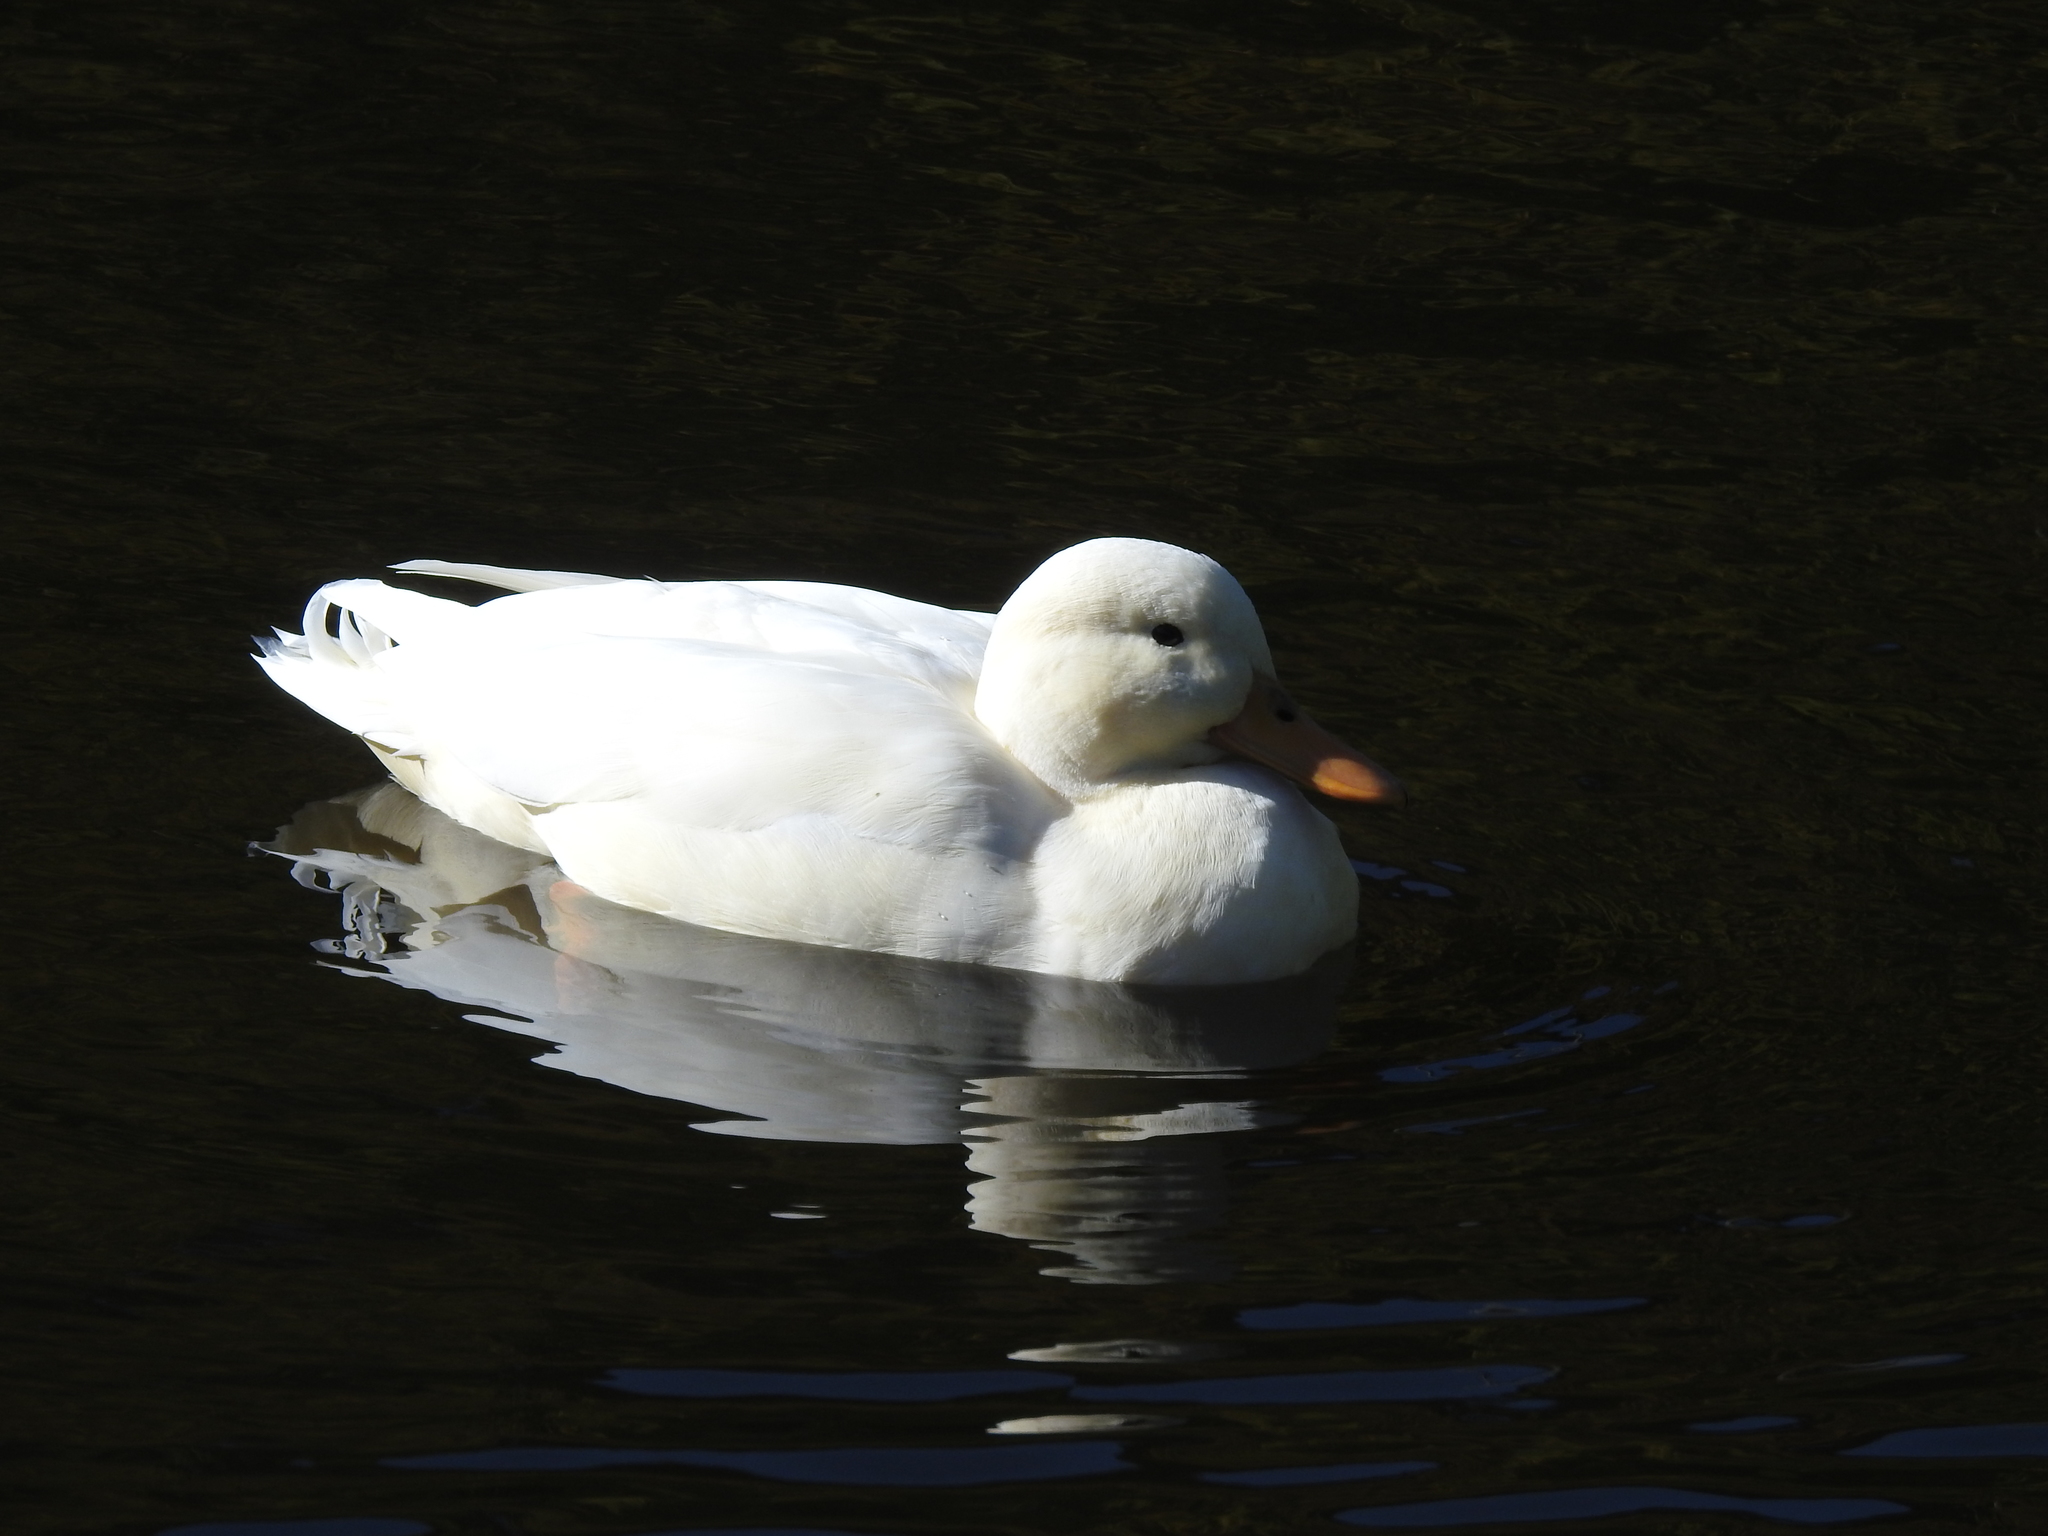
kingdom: Animalia
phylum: Chordata
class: Aves
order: Anseriformes
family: Anatidae
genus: Anas
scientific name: Anas platyrhynchos
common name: Mallard
